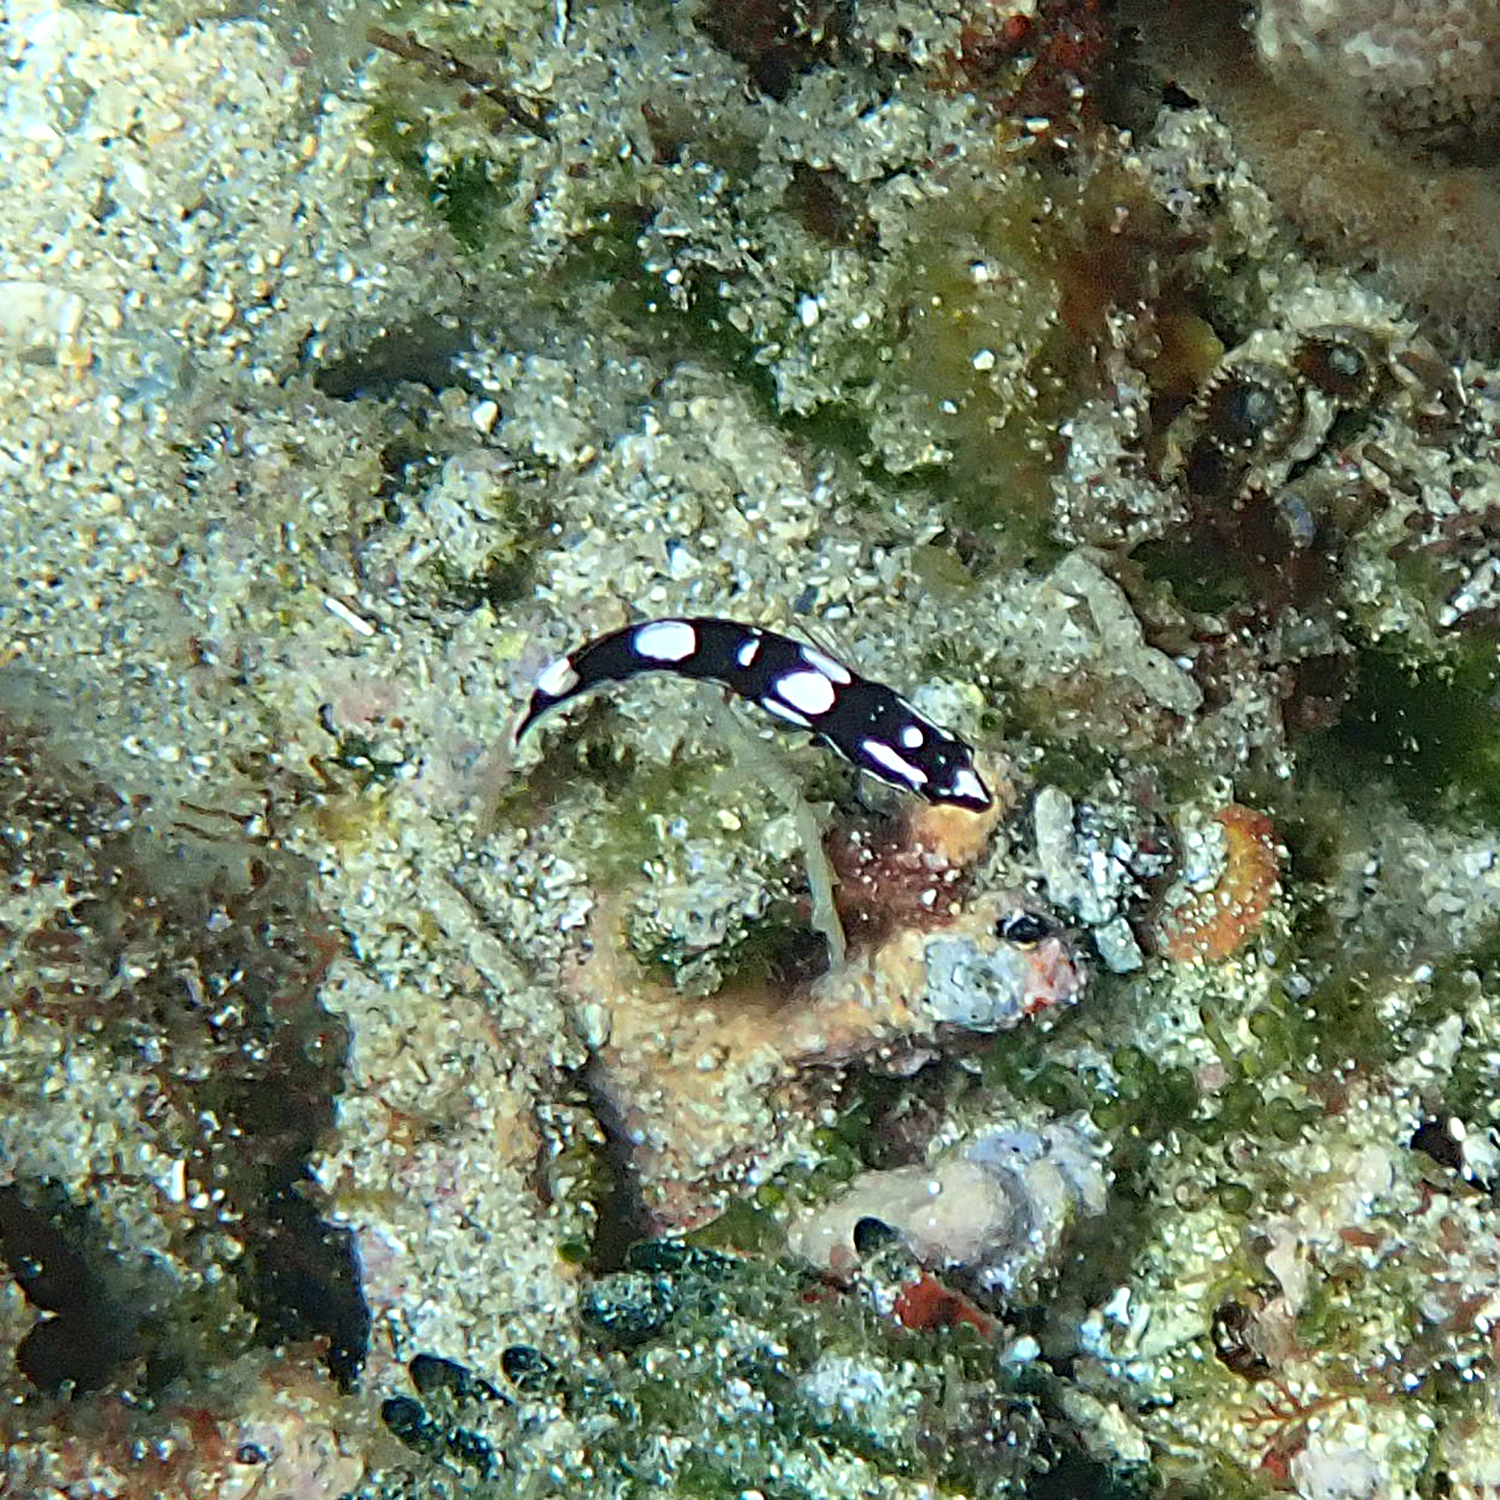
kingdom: Animalia
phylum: Chordata
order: Perciformes
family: Labridae
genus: Coris
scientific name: Coris bulbifrons
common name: Doubleheader
